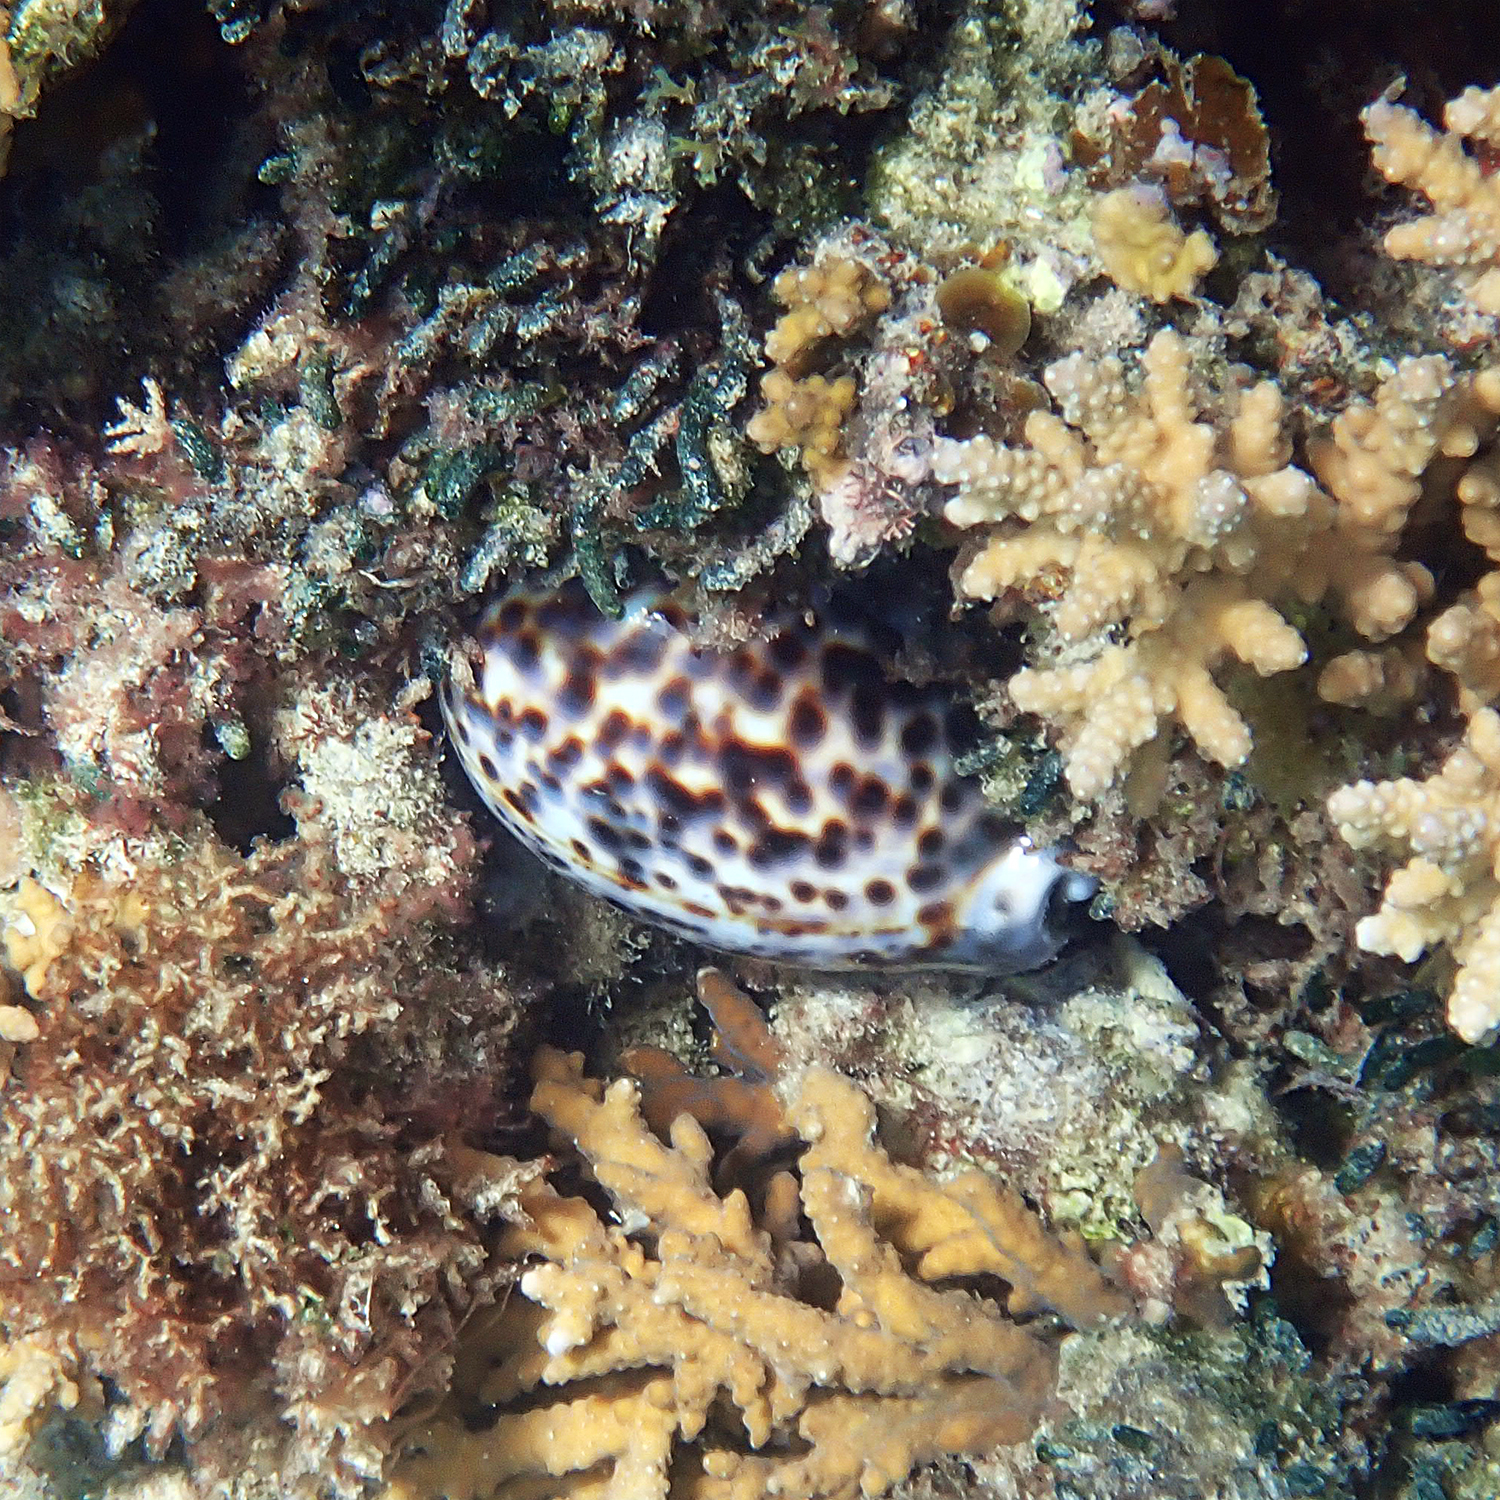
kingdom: Animalia
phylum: Mollusca
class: Gastropoda
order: Littorinimorpha
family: Cypraeidae
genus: Cypraea
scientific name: Cypraea tigris
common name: Tiger cowrie
